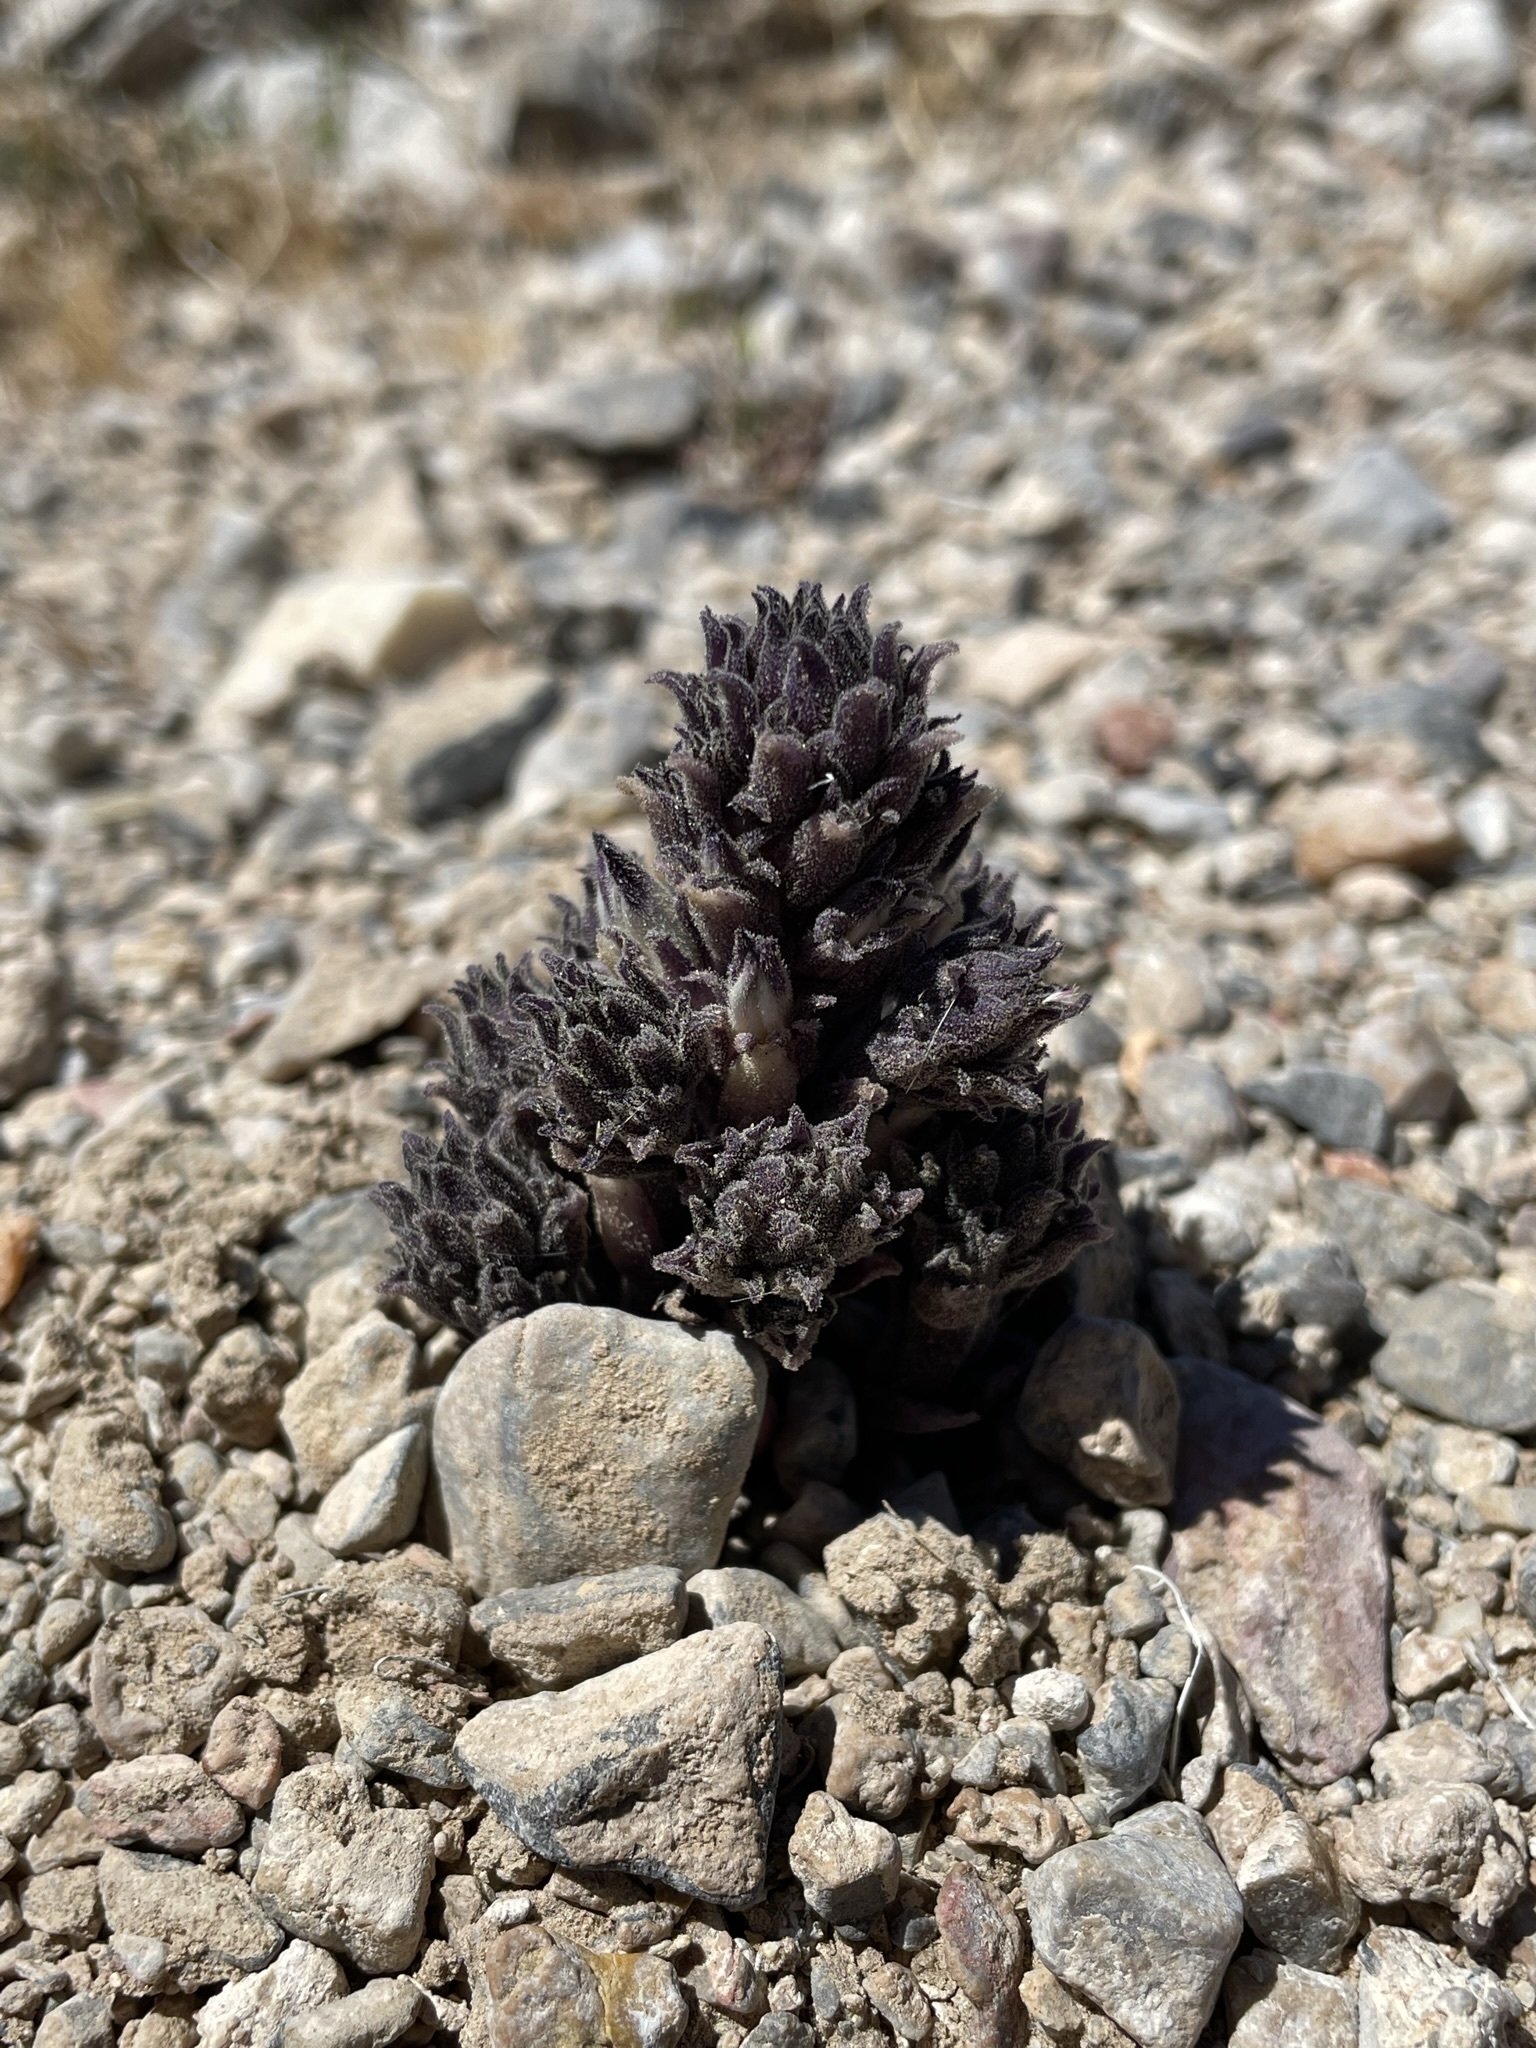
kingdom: Plantae
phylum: Tracheophyta
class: Magnoliopsida
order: Lamiales
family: Orobanchaceae
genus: Aphyllon
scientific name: Aphyllon cooperi
